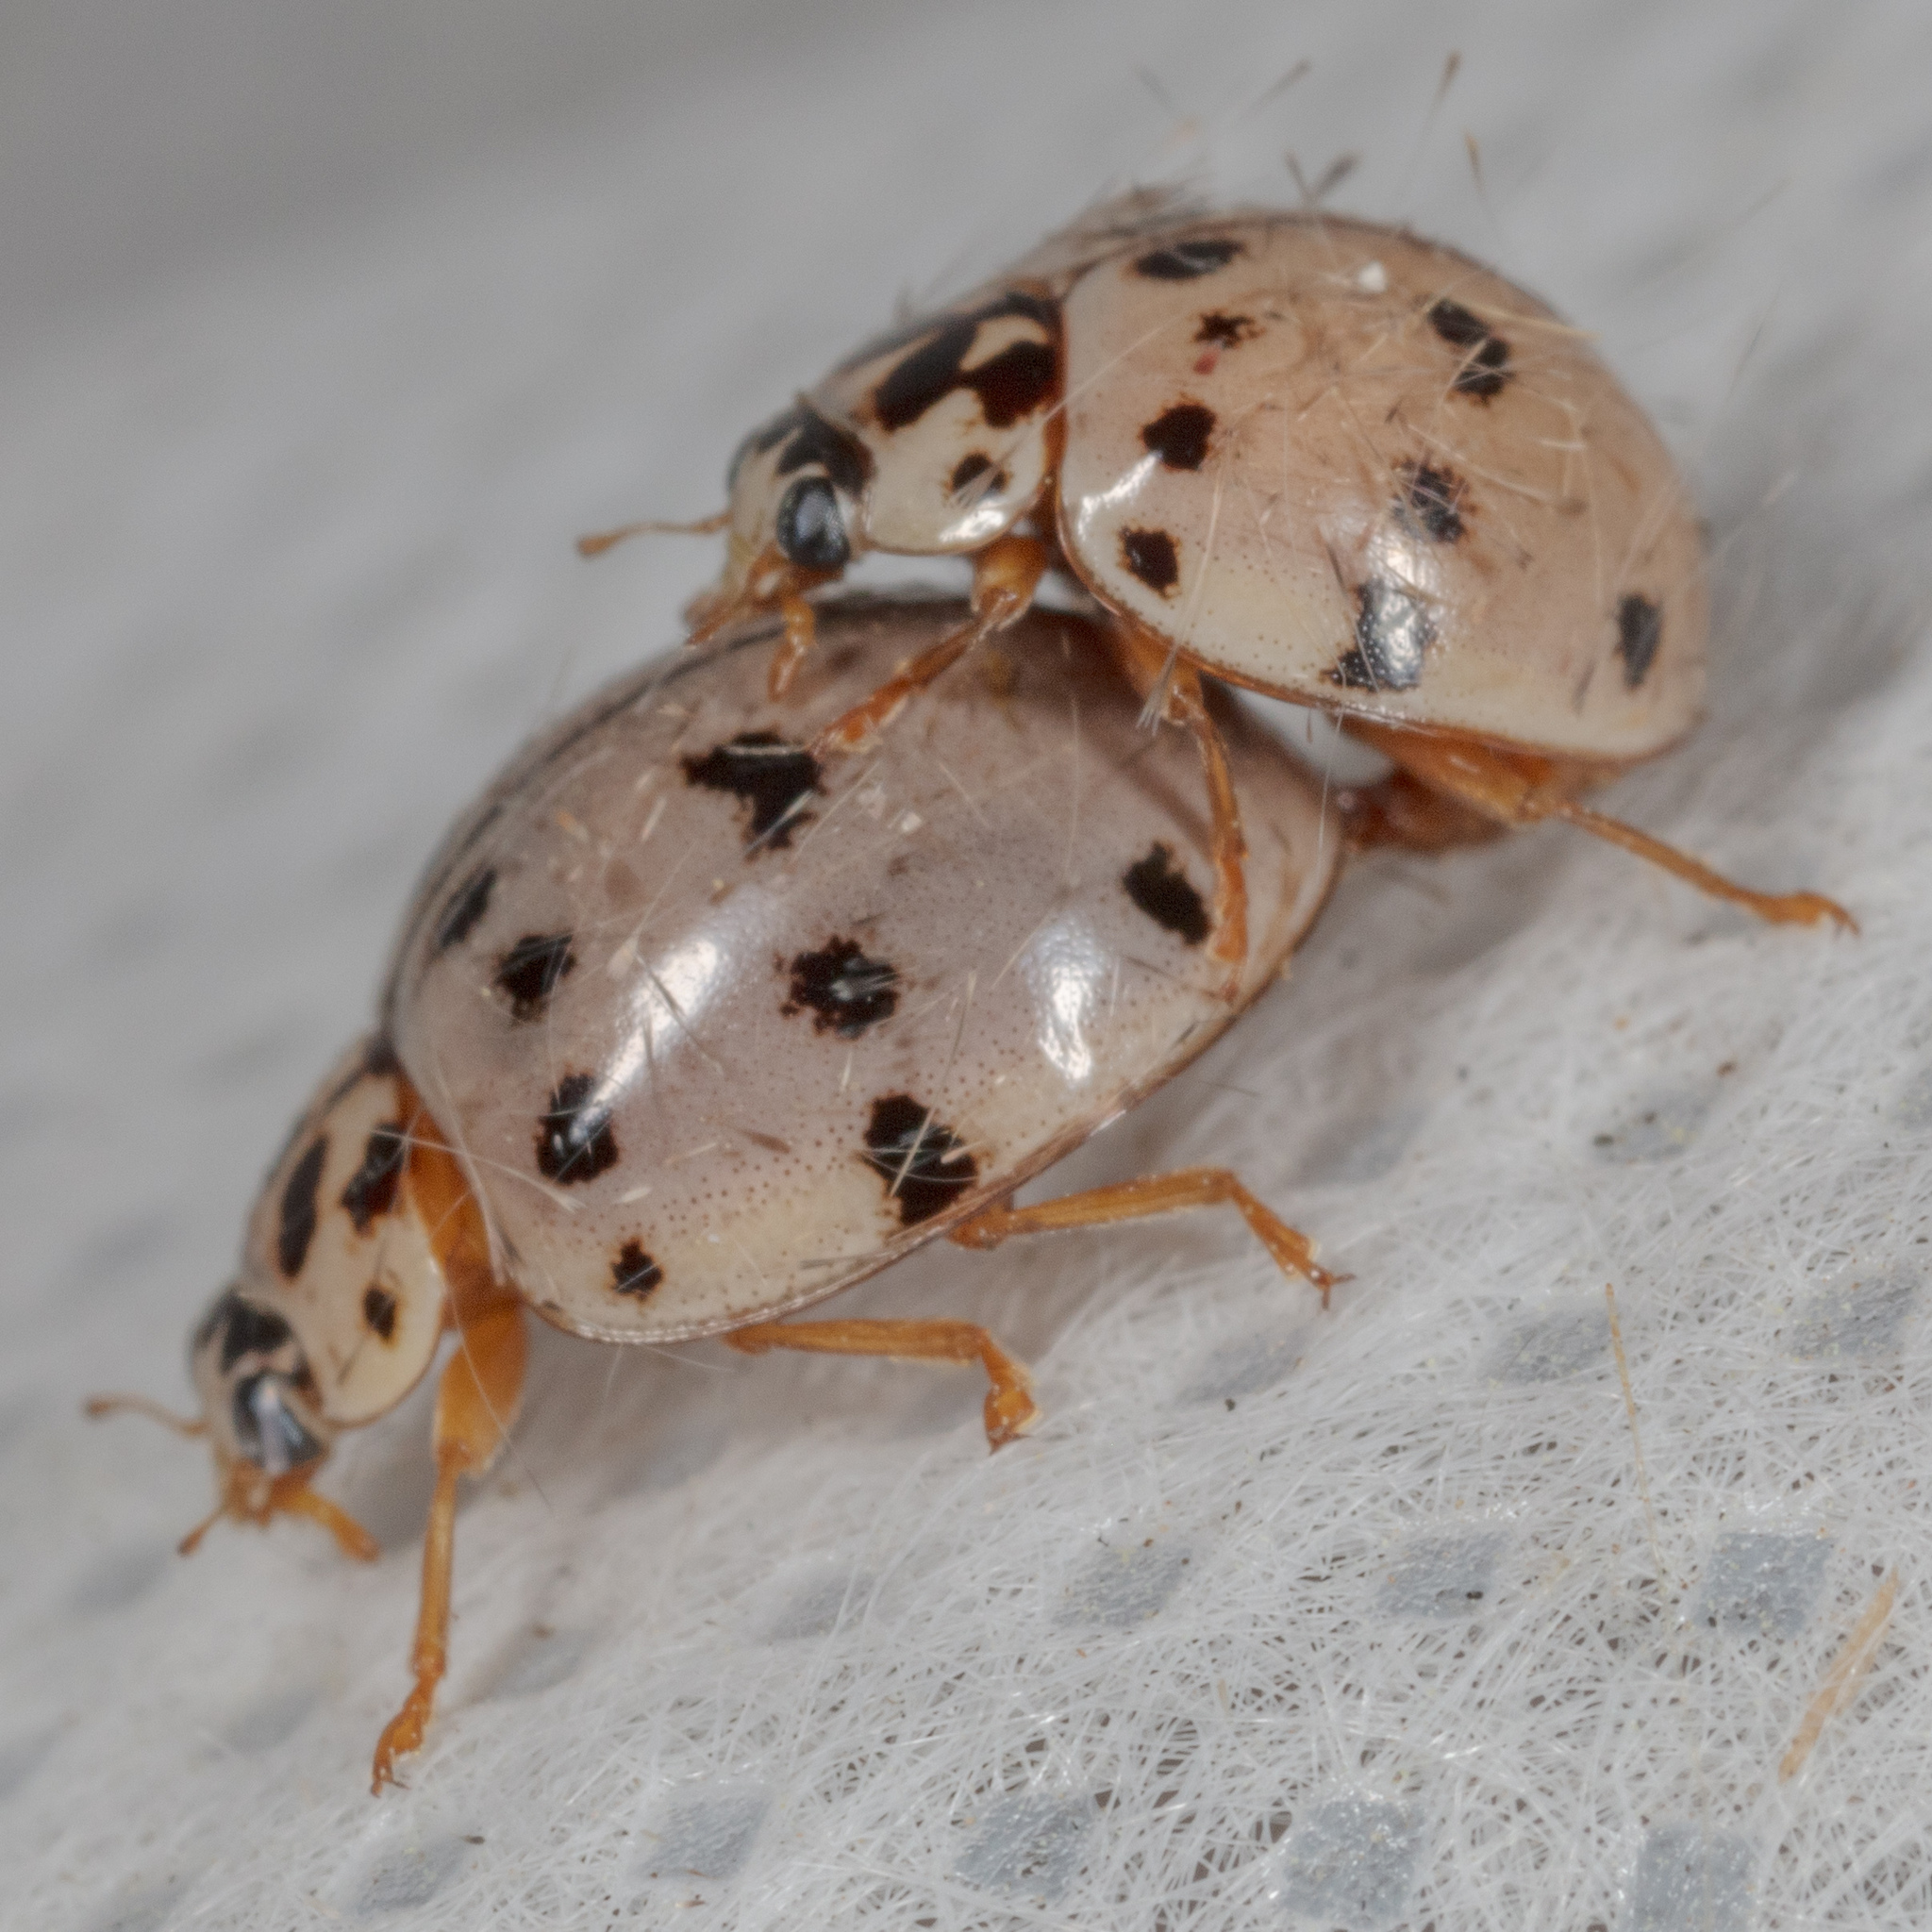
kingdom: Animalia
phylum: Arthropoda
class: Insecta
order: Coleoptera
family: Coccinellidae
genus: Olla
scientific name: Olla v-nigrum
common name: Ashy gray lady beetle
